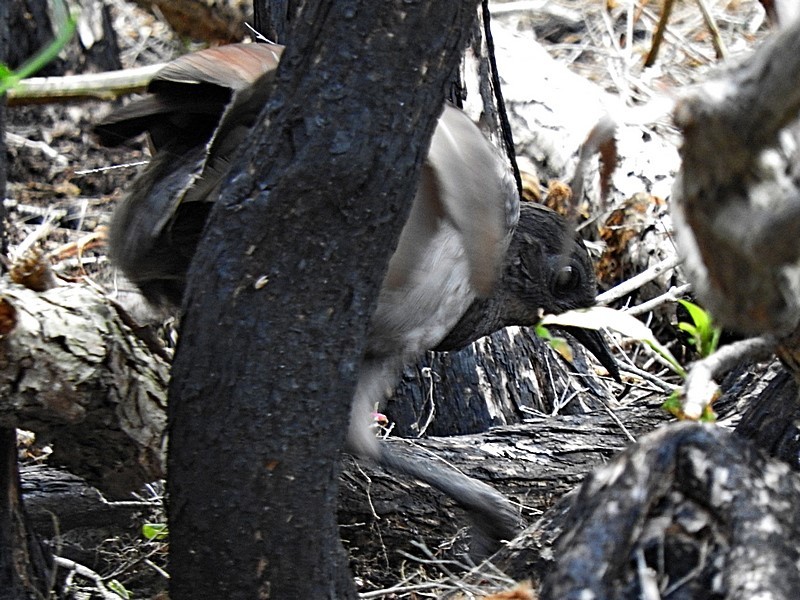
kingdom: Animalia
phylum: Chordata
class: Aves
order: Passeriformes
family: Menuridae
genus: Menura
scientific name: Menura novaehollandiae
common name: Superb lyrebird
